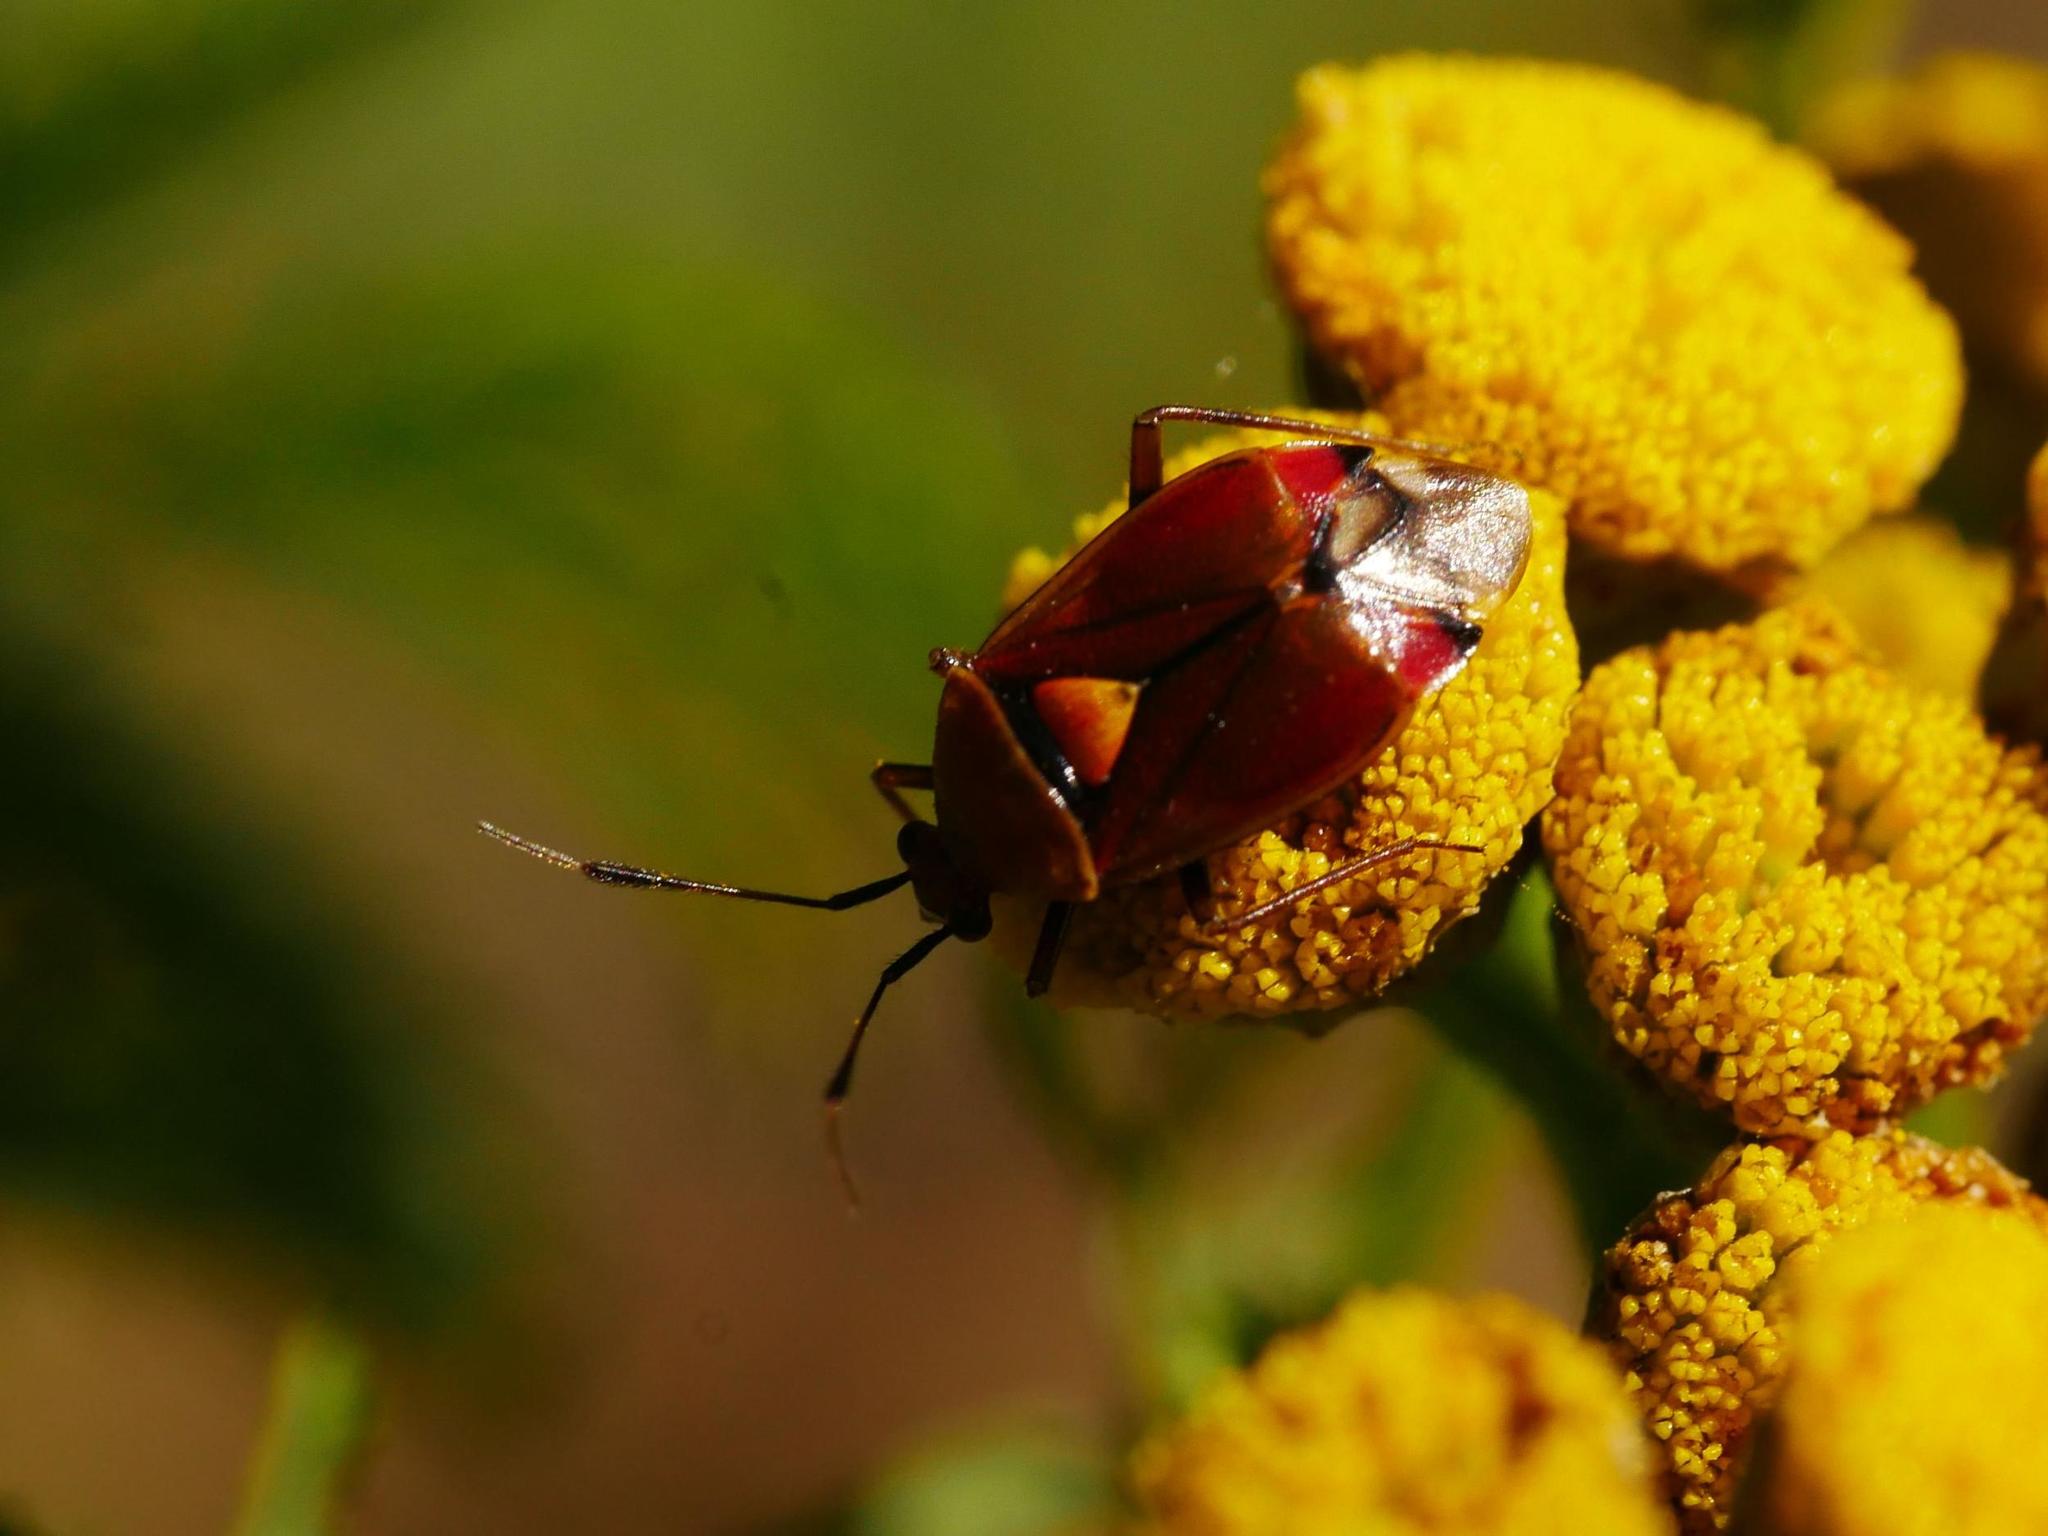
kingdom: Animalia
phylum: Arthropoda
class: Insecta
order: Hemiptera
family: Miridae
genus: Deraeocoris
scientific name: Deraeocoris ruber
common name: Plant bug
